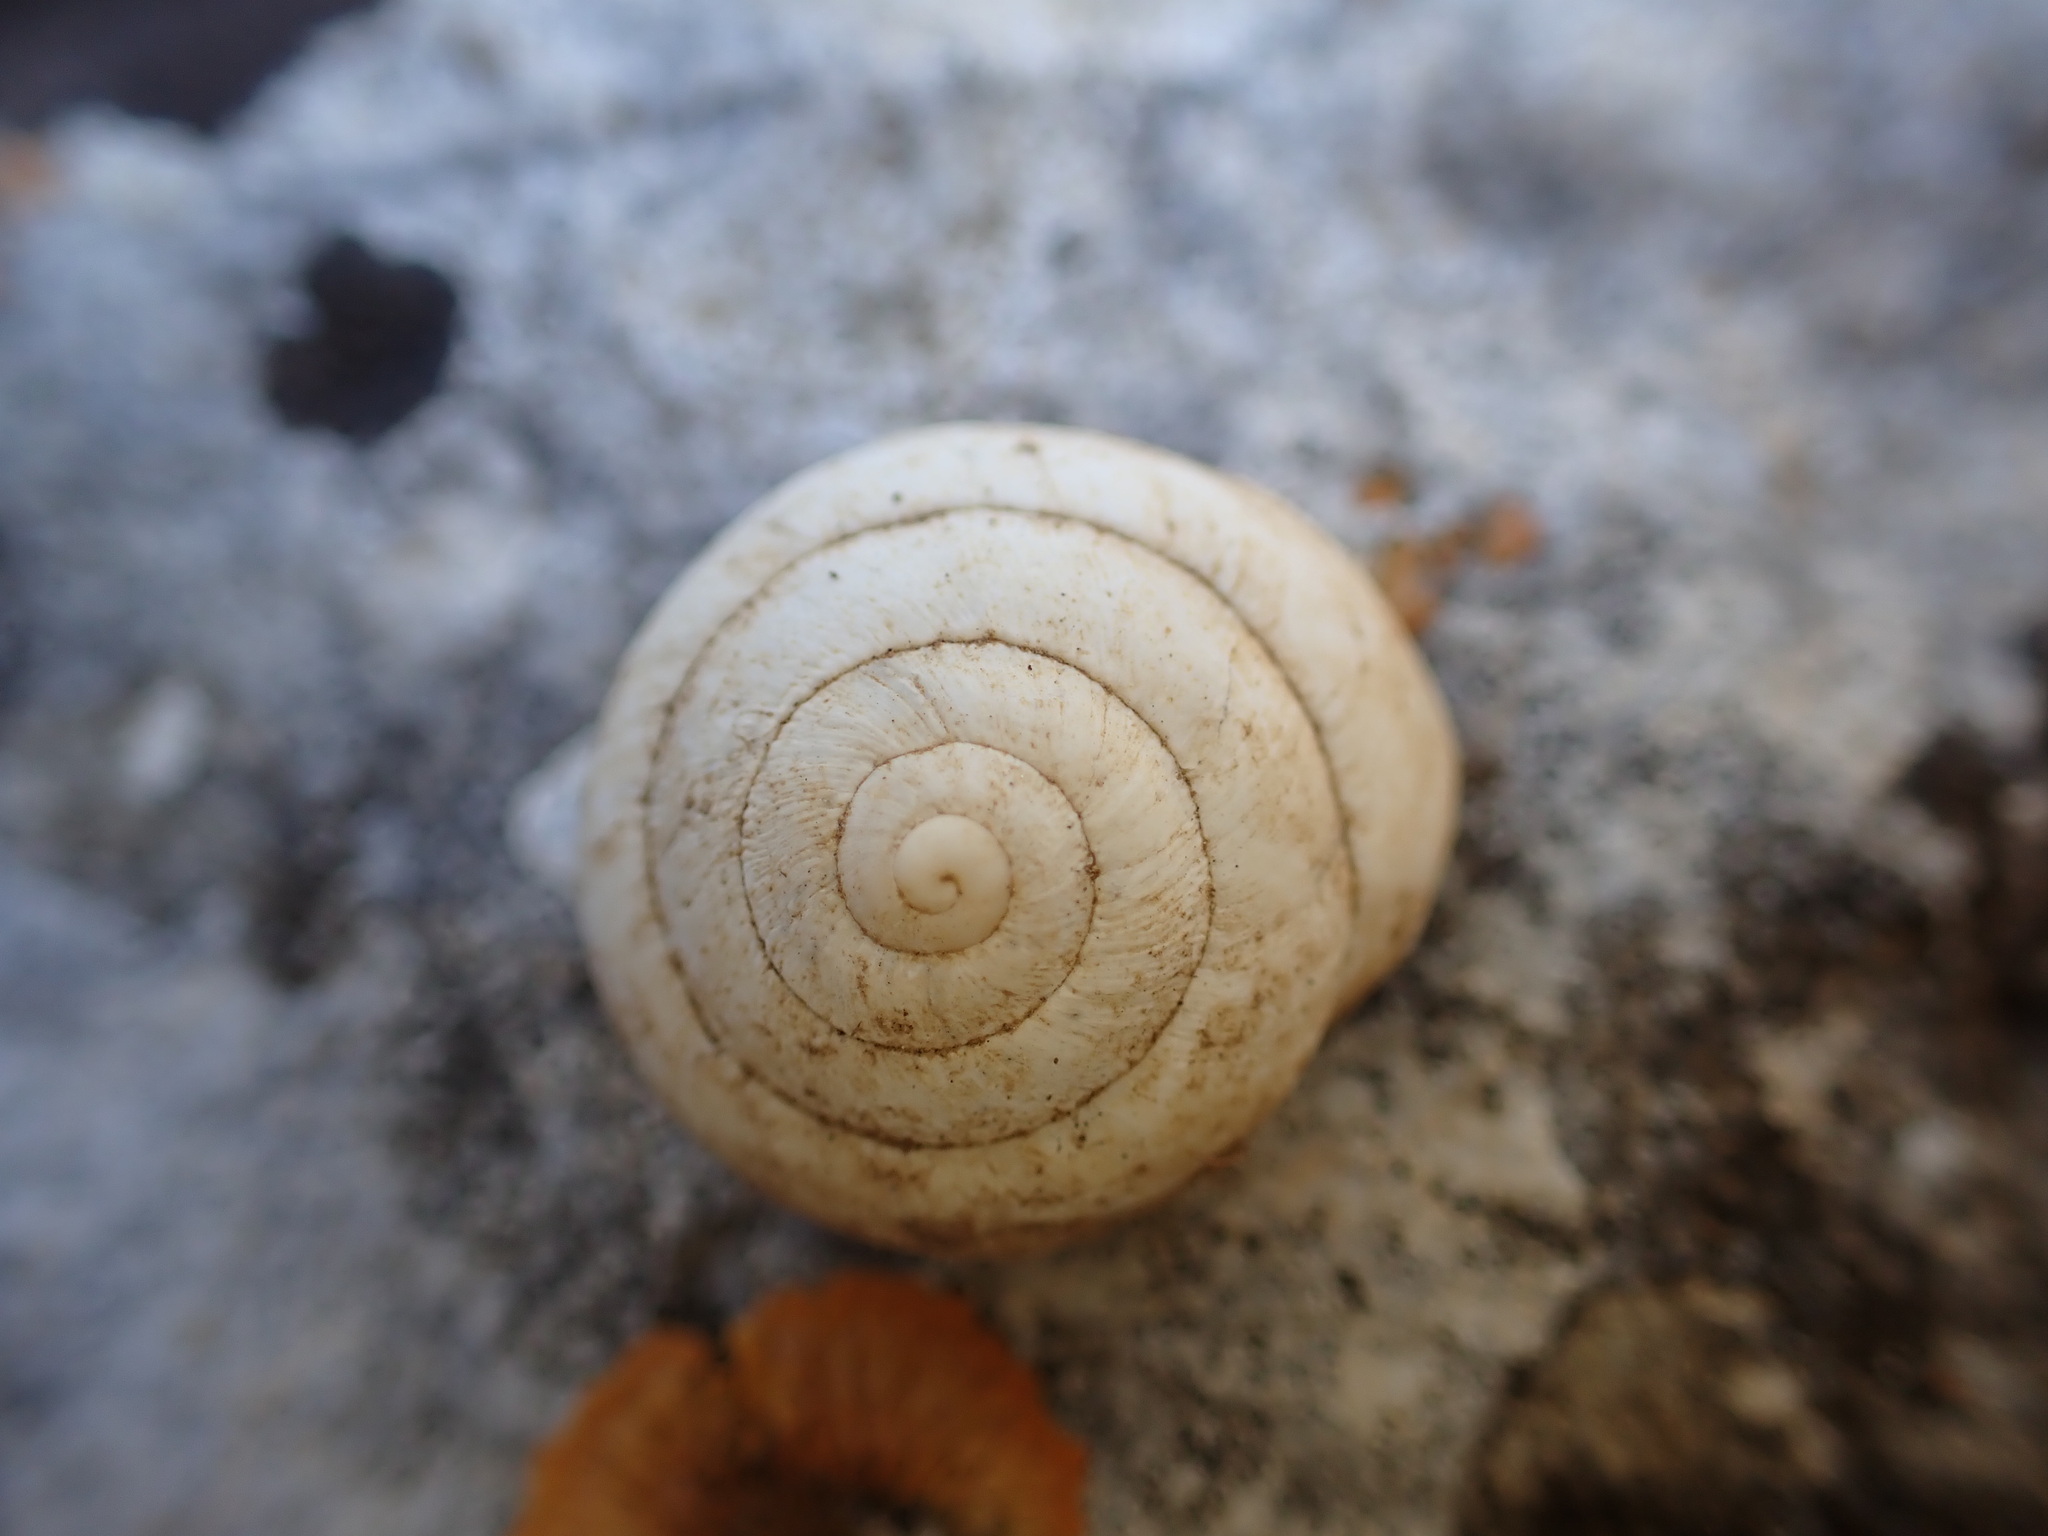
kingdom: Animalia
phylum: Mollusca
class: Gastropoda
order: Stylommatophora
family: Sphincterochilidae
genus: Sphincterochila
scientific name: Sphincterochila candidissima
